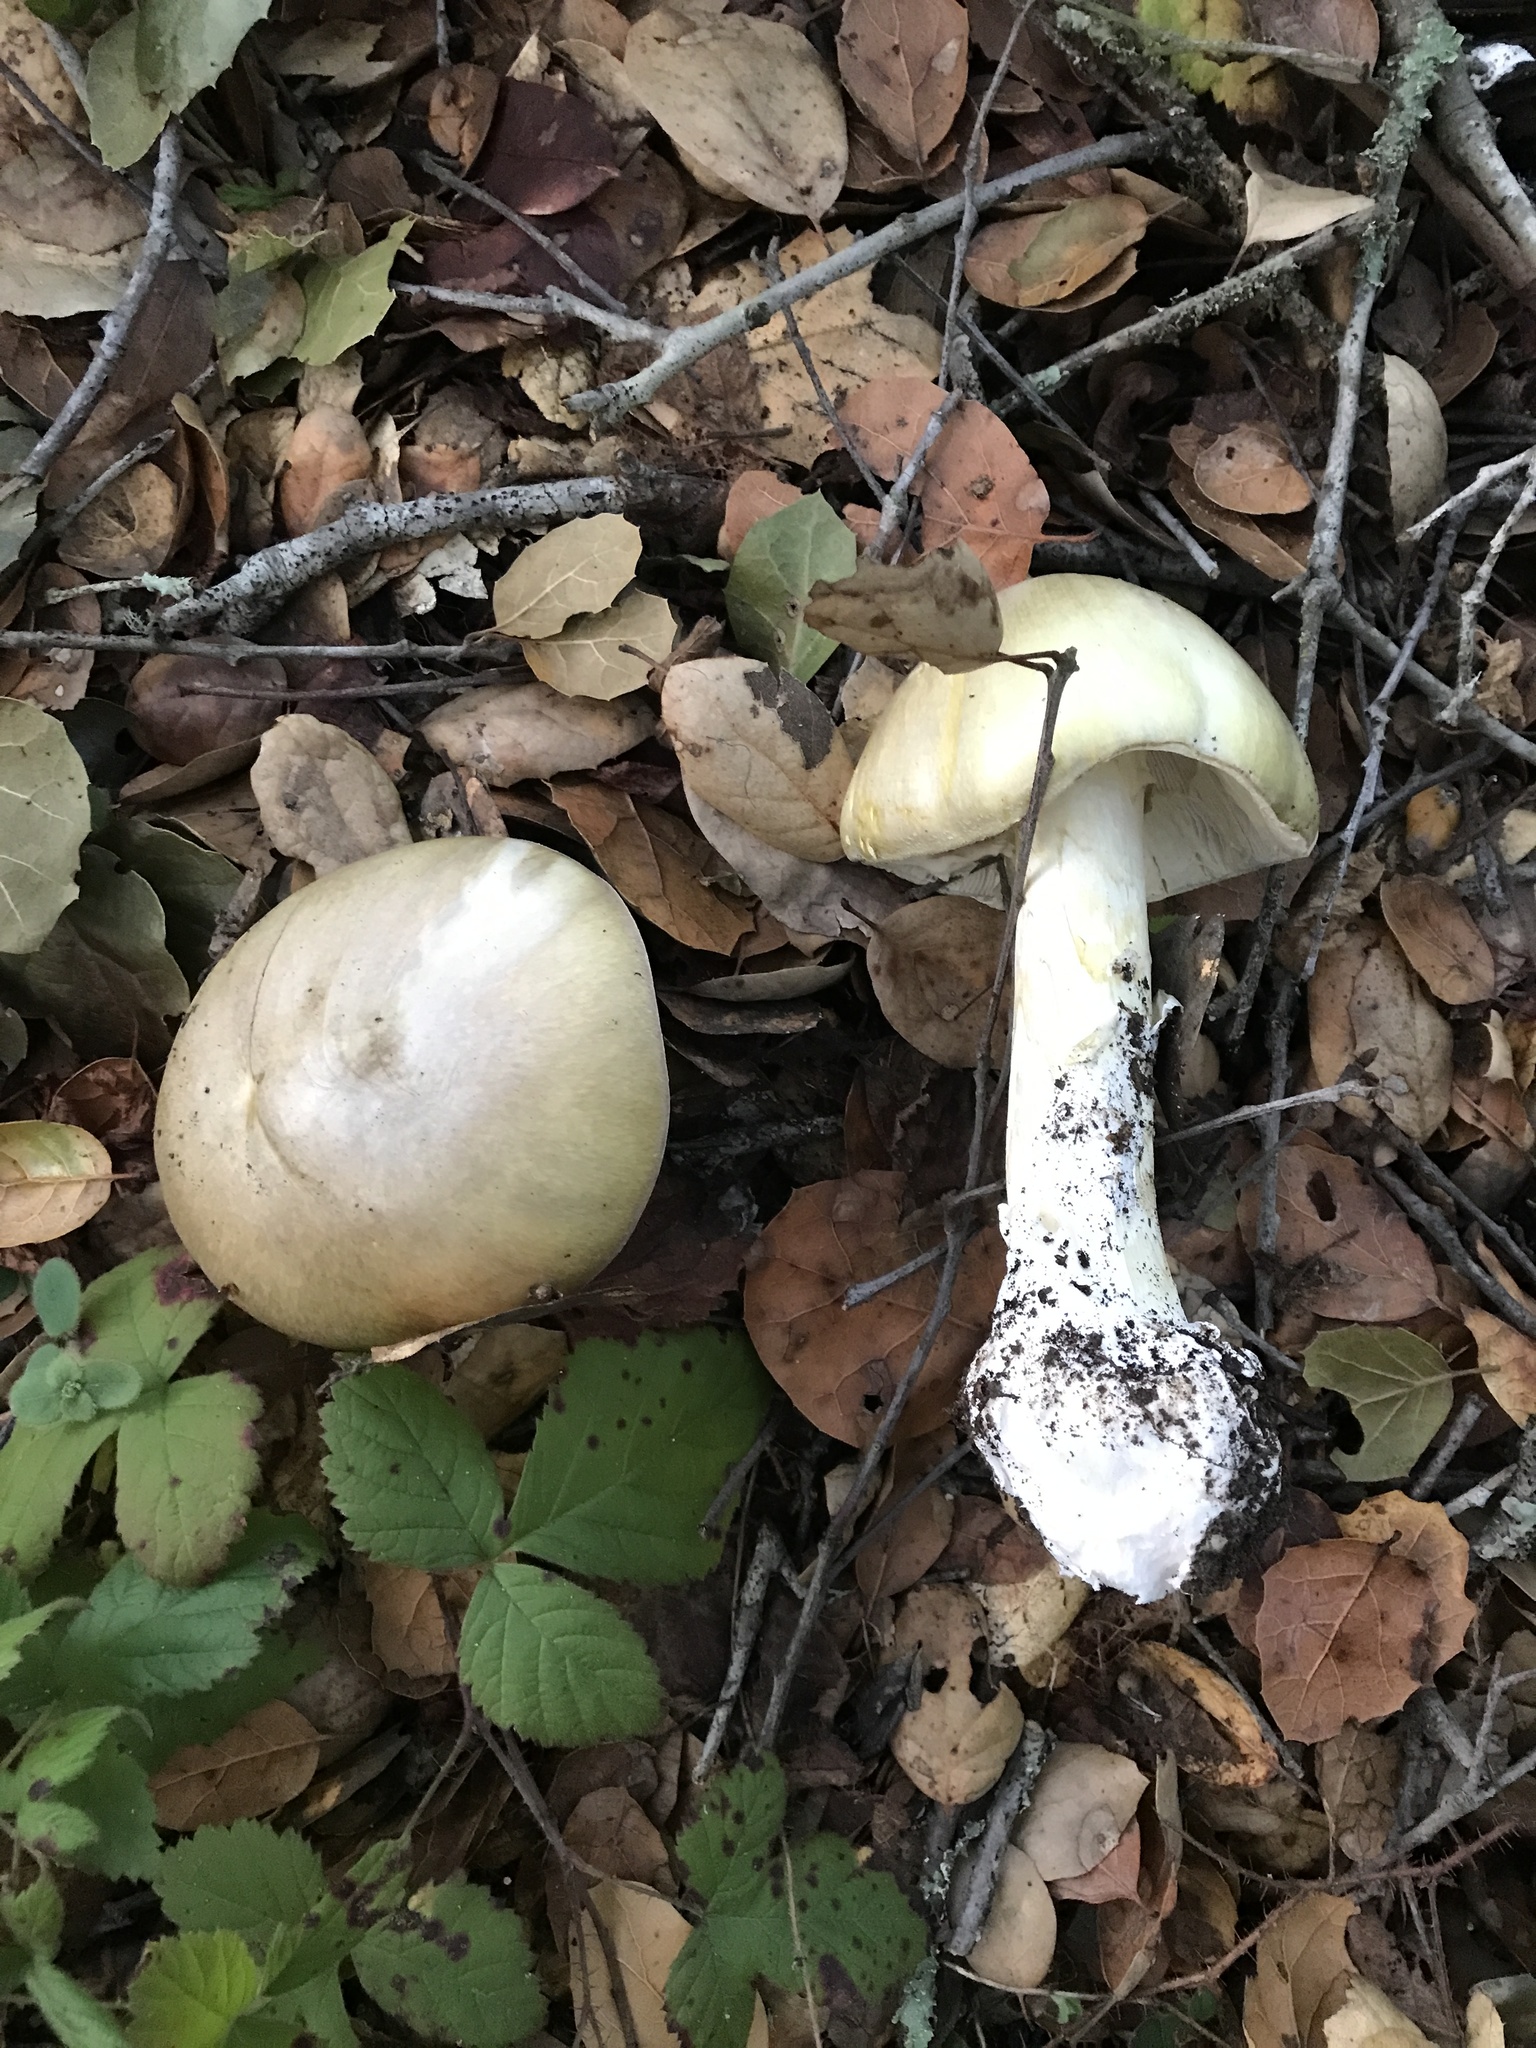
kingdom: Fungi
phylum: Basidiomycota
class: Agaricomycetes
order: Agaricales
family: Amanitaceae
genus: Amanita
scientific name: Amanita phalloides
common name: Death cap
